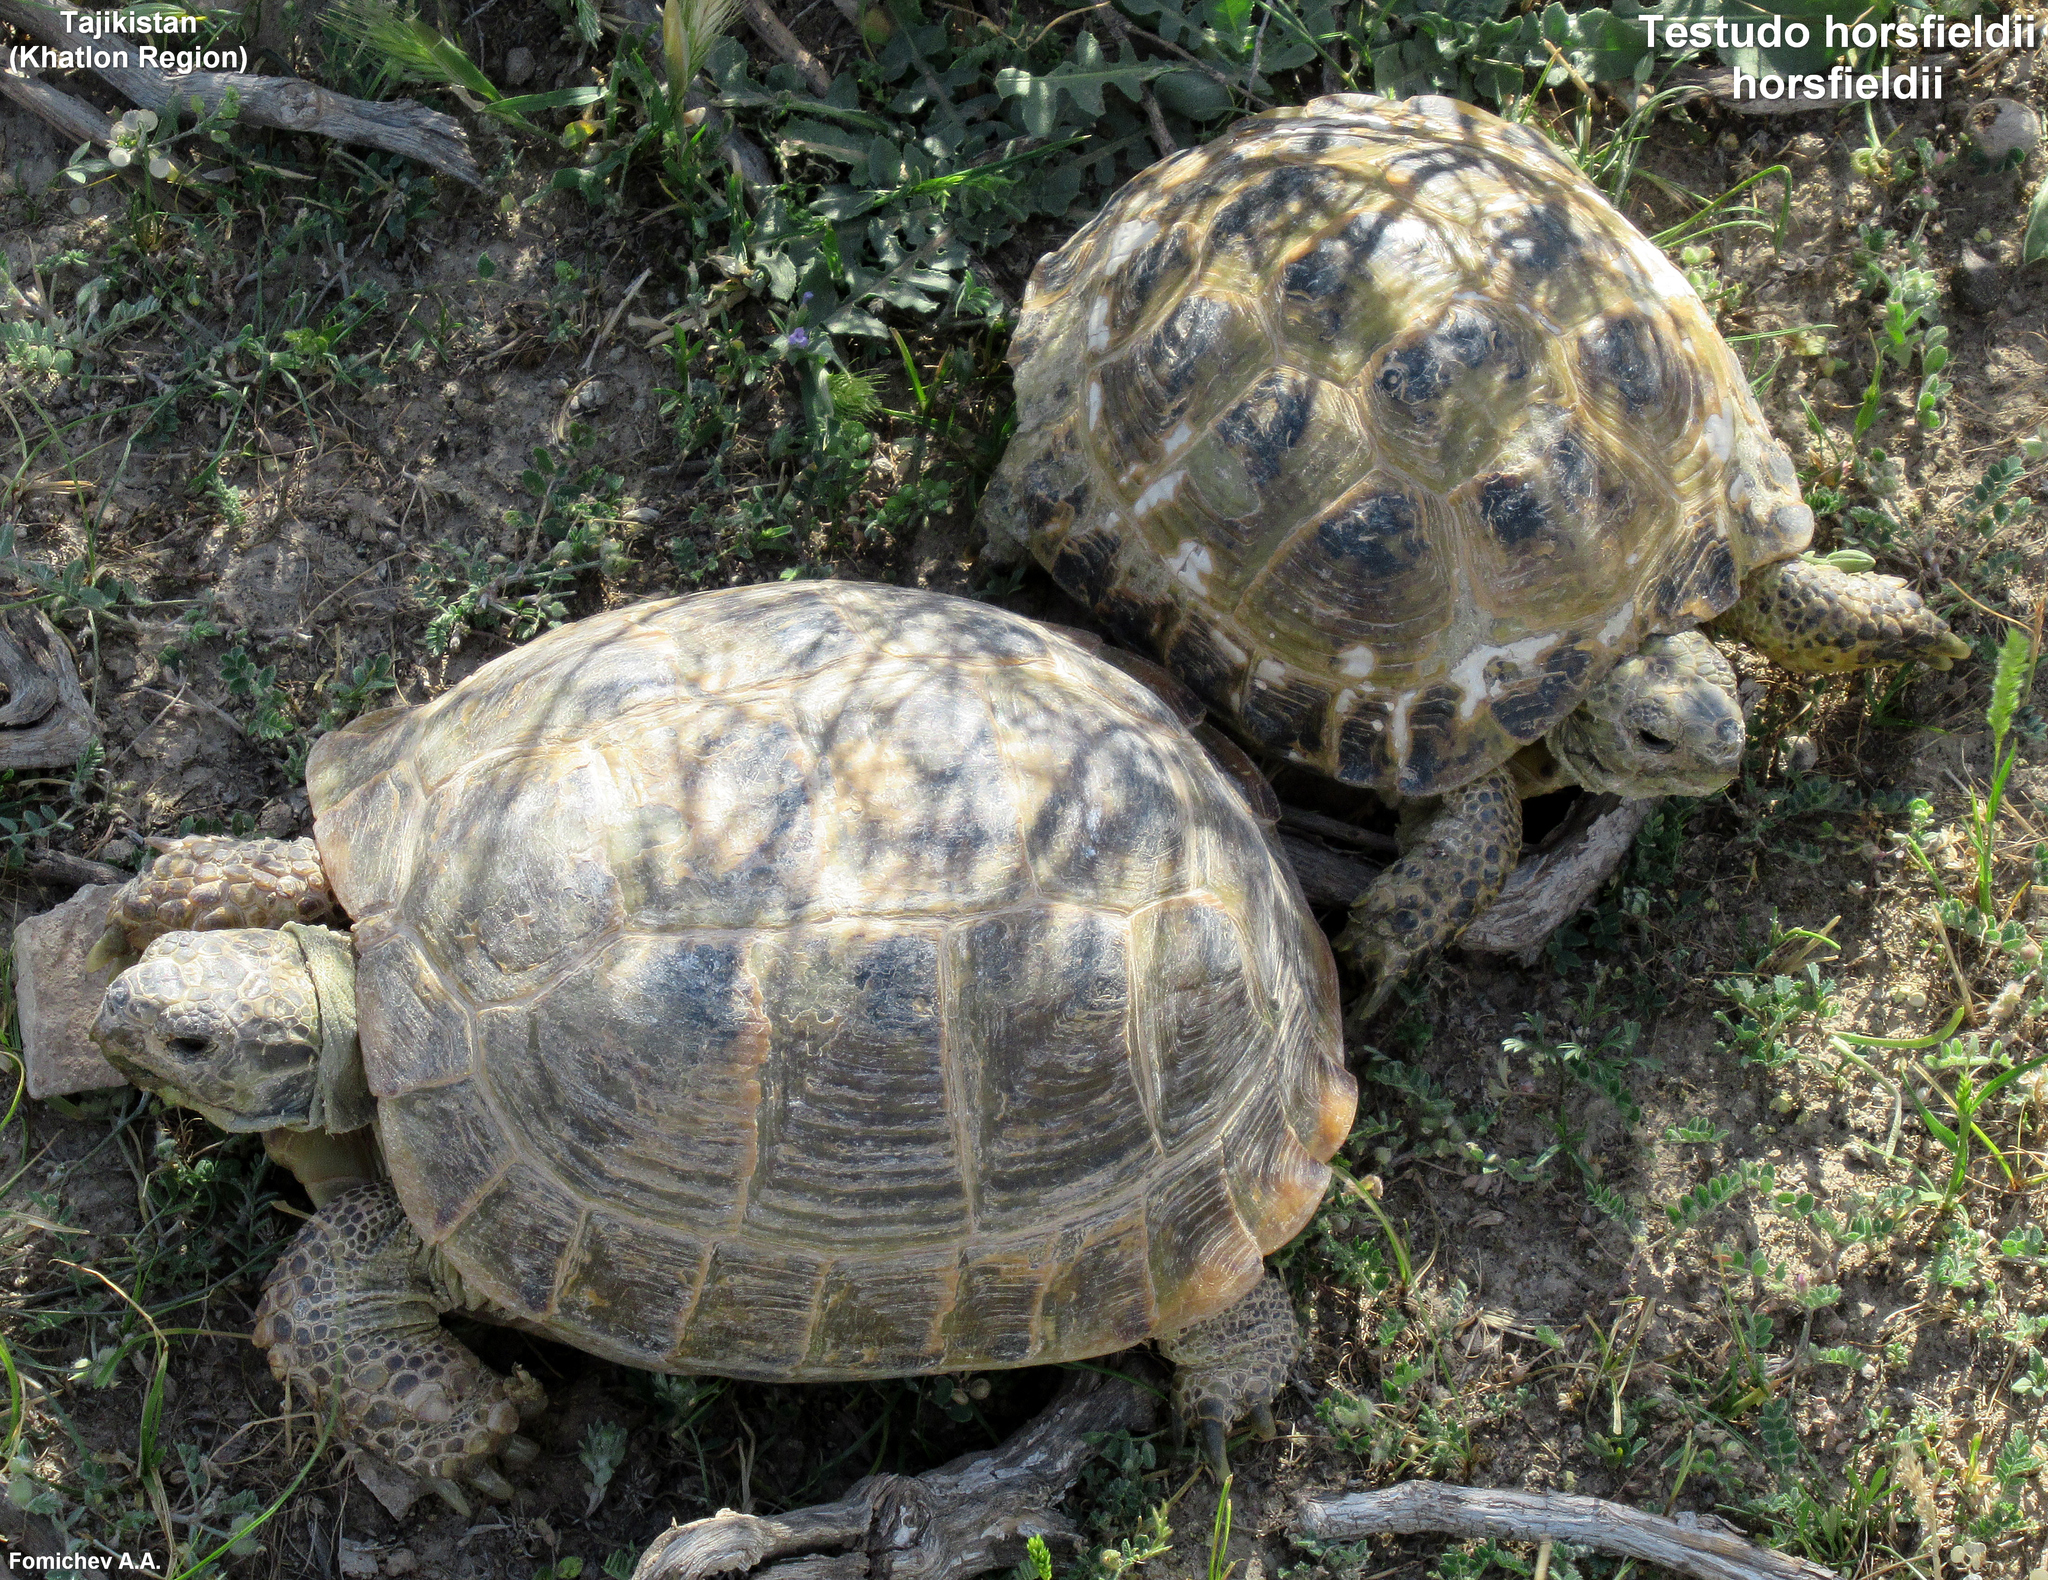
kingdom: Animalia
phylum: Chordata
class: Testudines
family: Testudinidae
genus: Testudo
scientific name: Testudo horsfieldii
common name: Central asia tortoise
